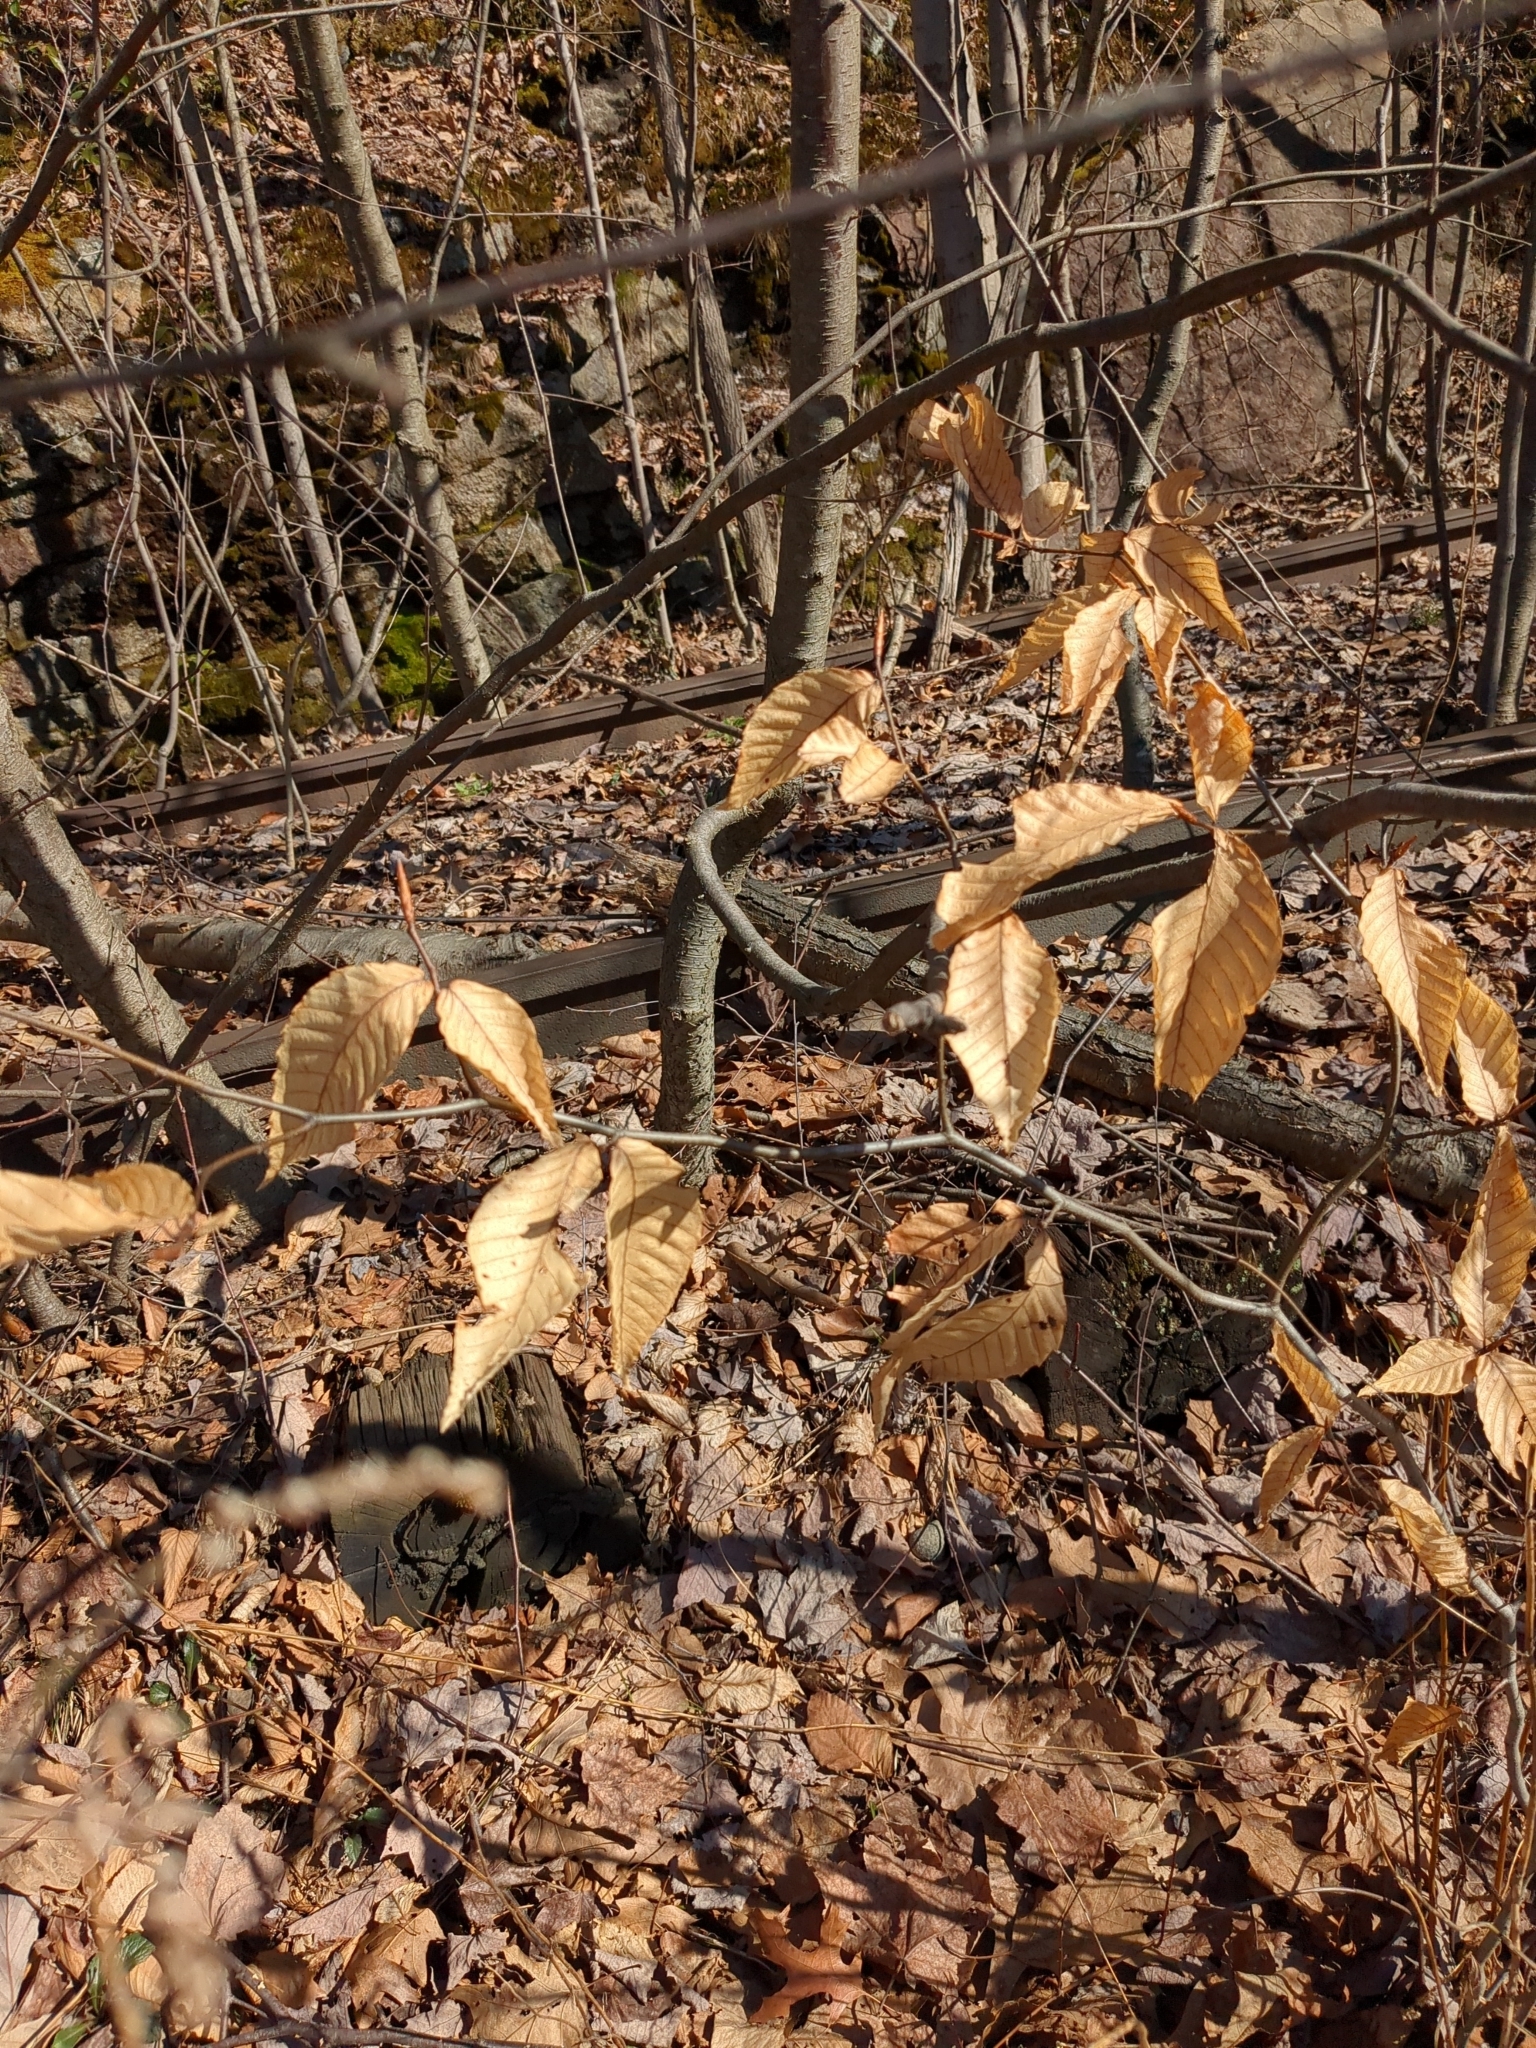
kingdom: Plantae
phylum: Tracheophyta
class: Magnoliopsida
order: Fagales
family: Fagaceae
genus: Fagus
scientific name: Fagus grandifolia
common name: American beech
